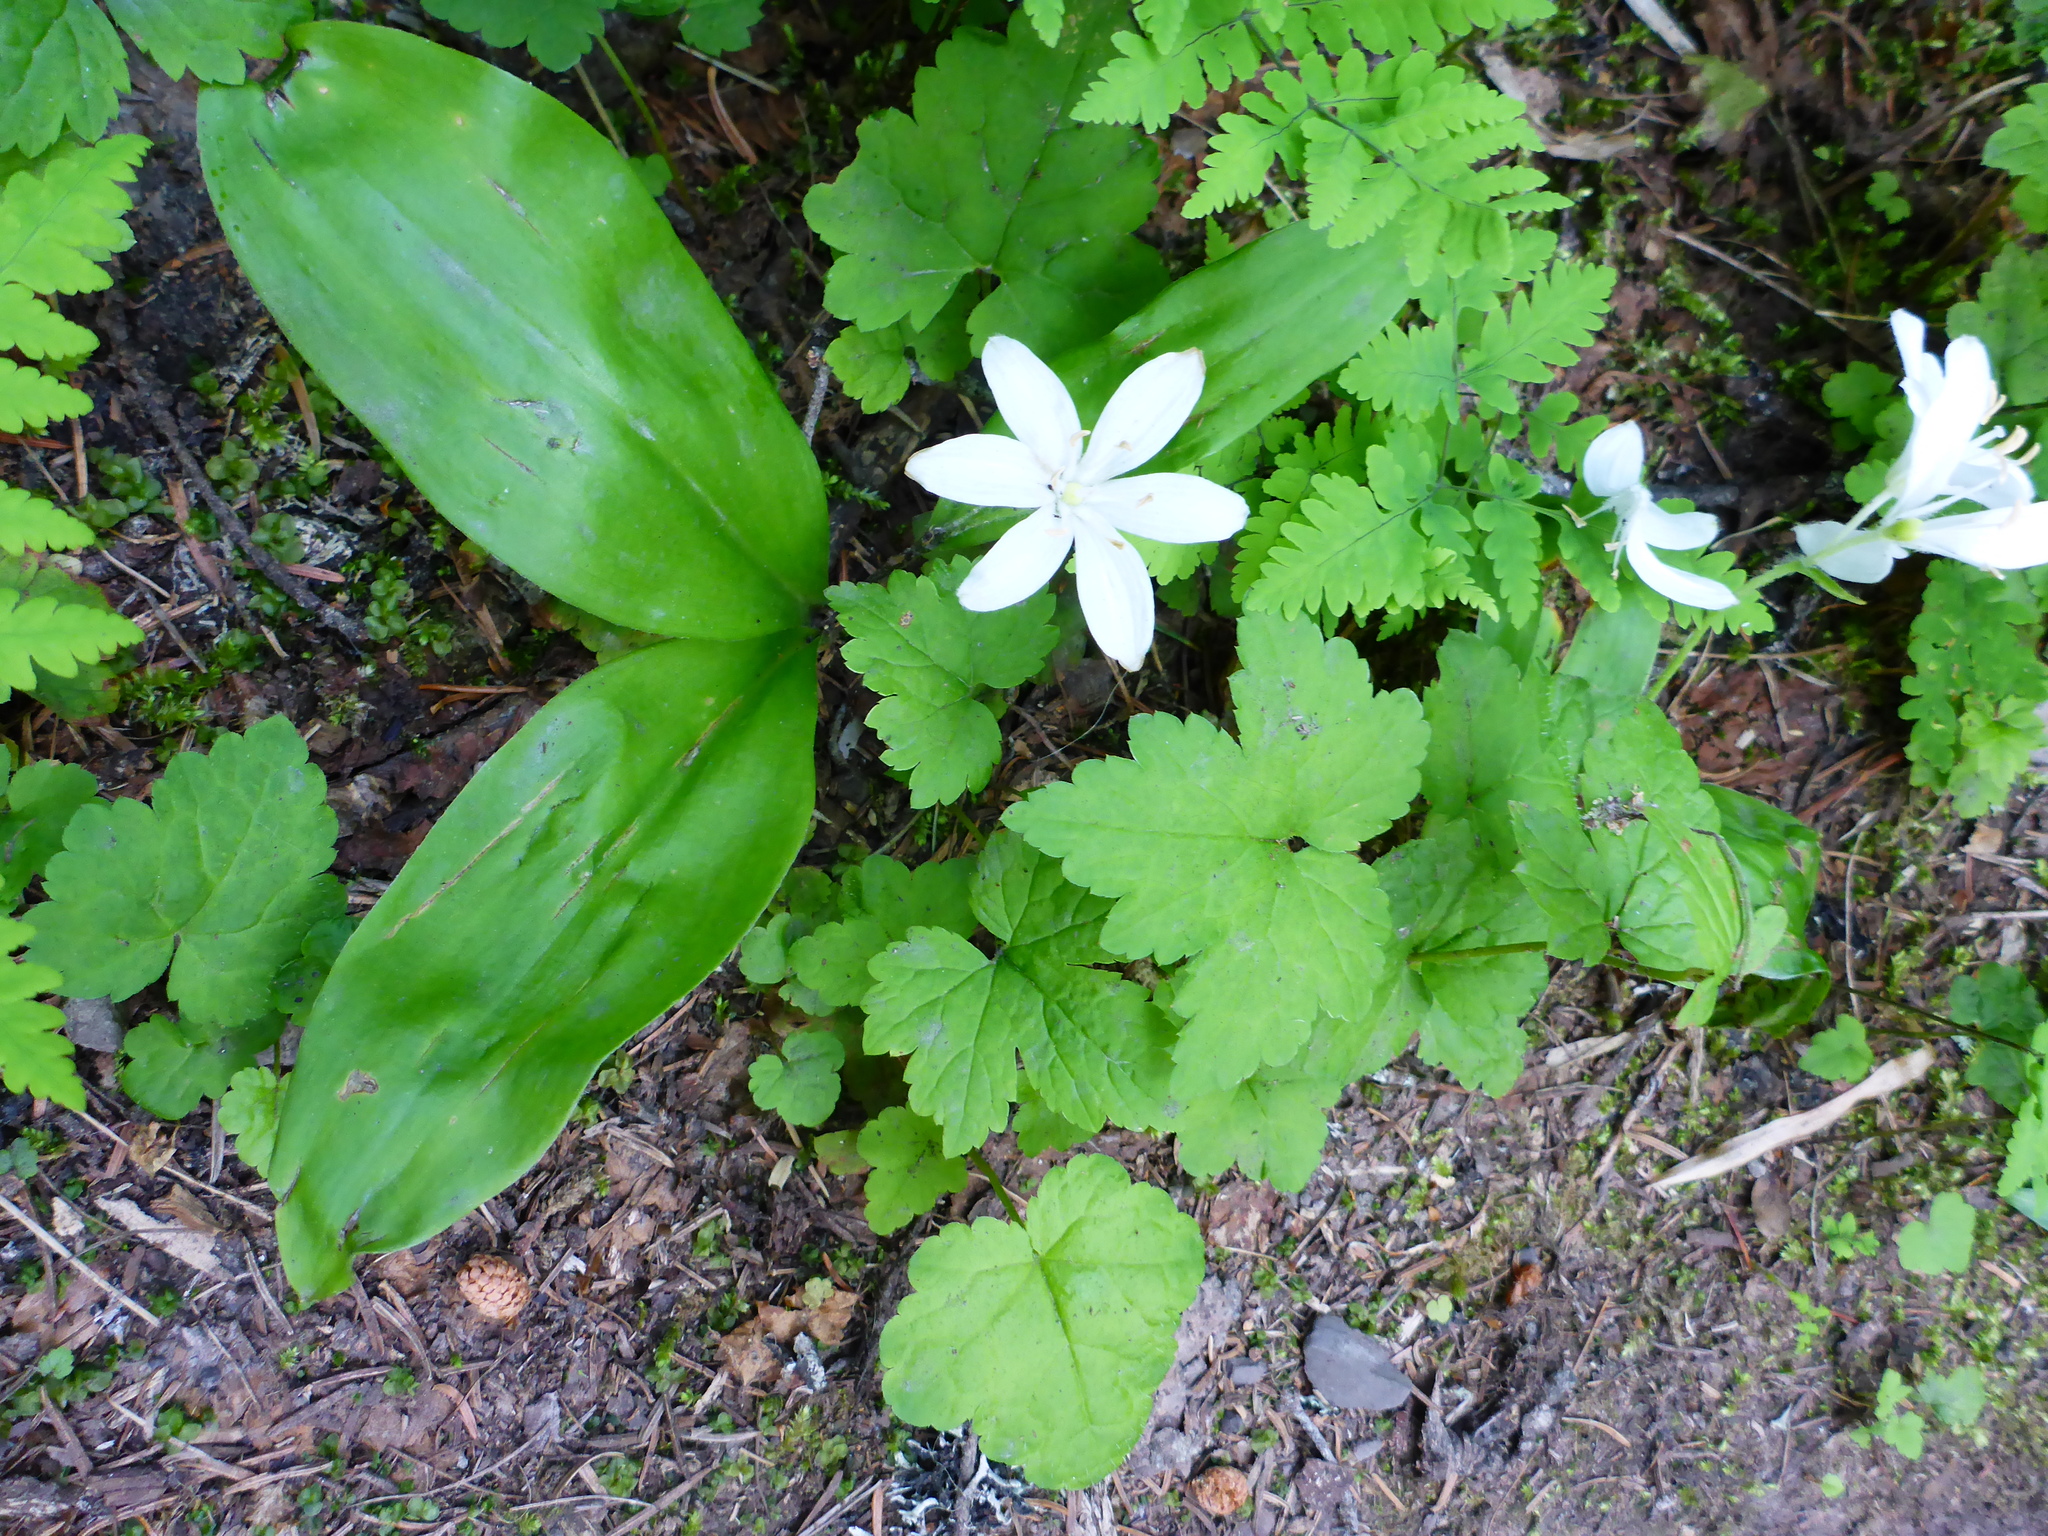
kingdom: Plantae
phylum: Tracheophyta
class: Liliopsida
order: Liliales
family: Liliaceae
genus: Clintonia
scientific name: Clintonia uniflora
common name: Queen's cup
